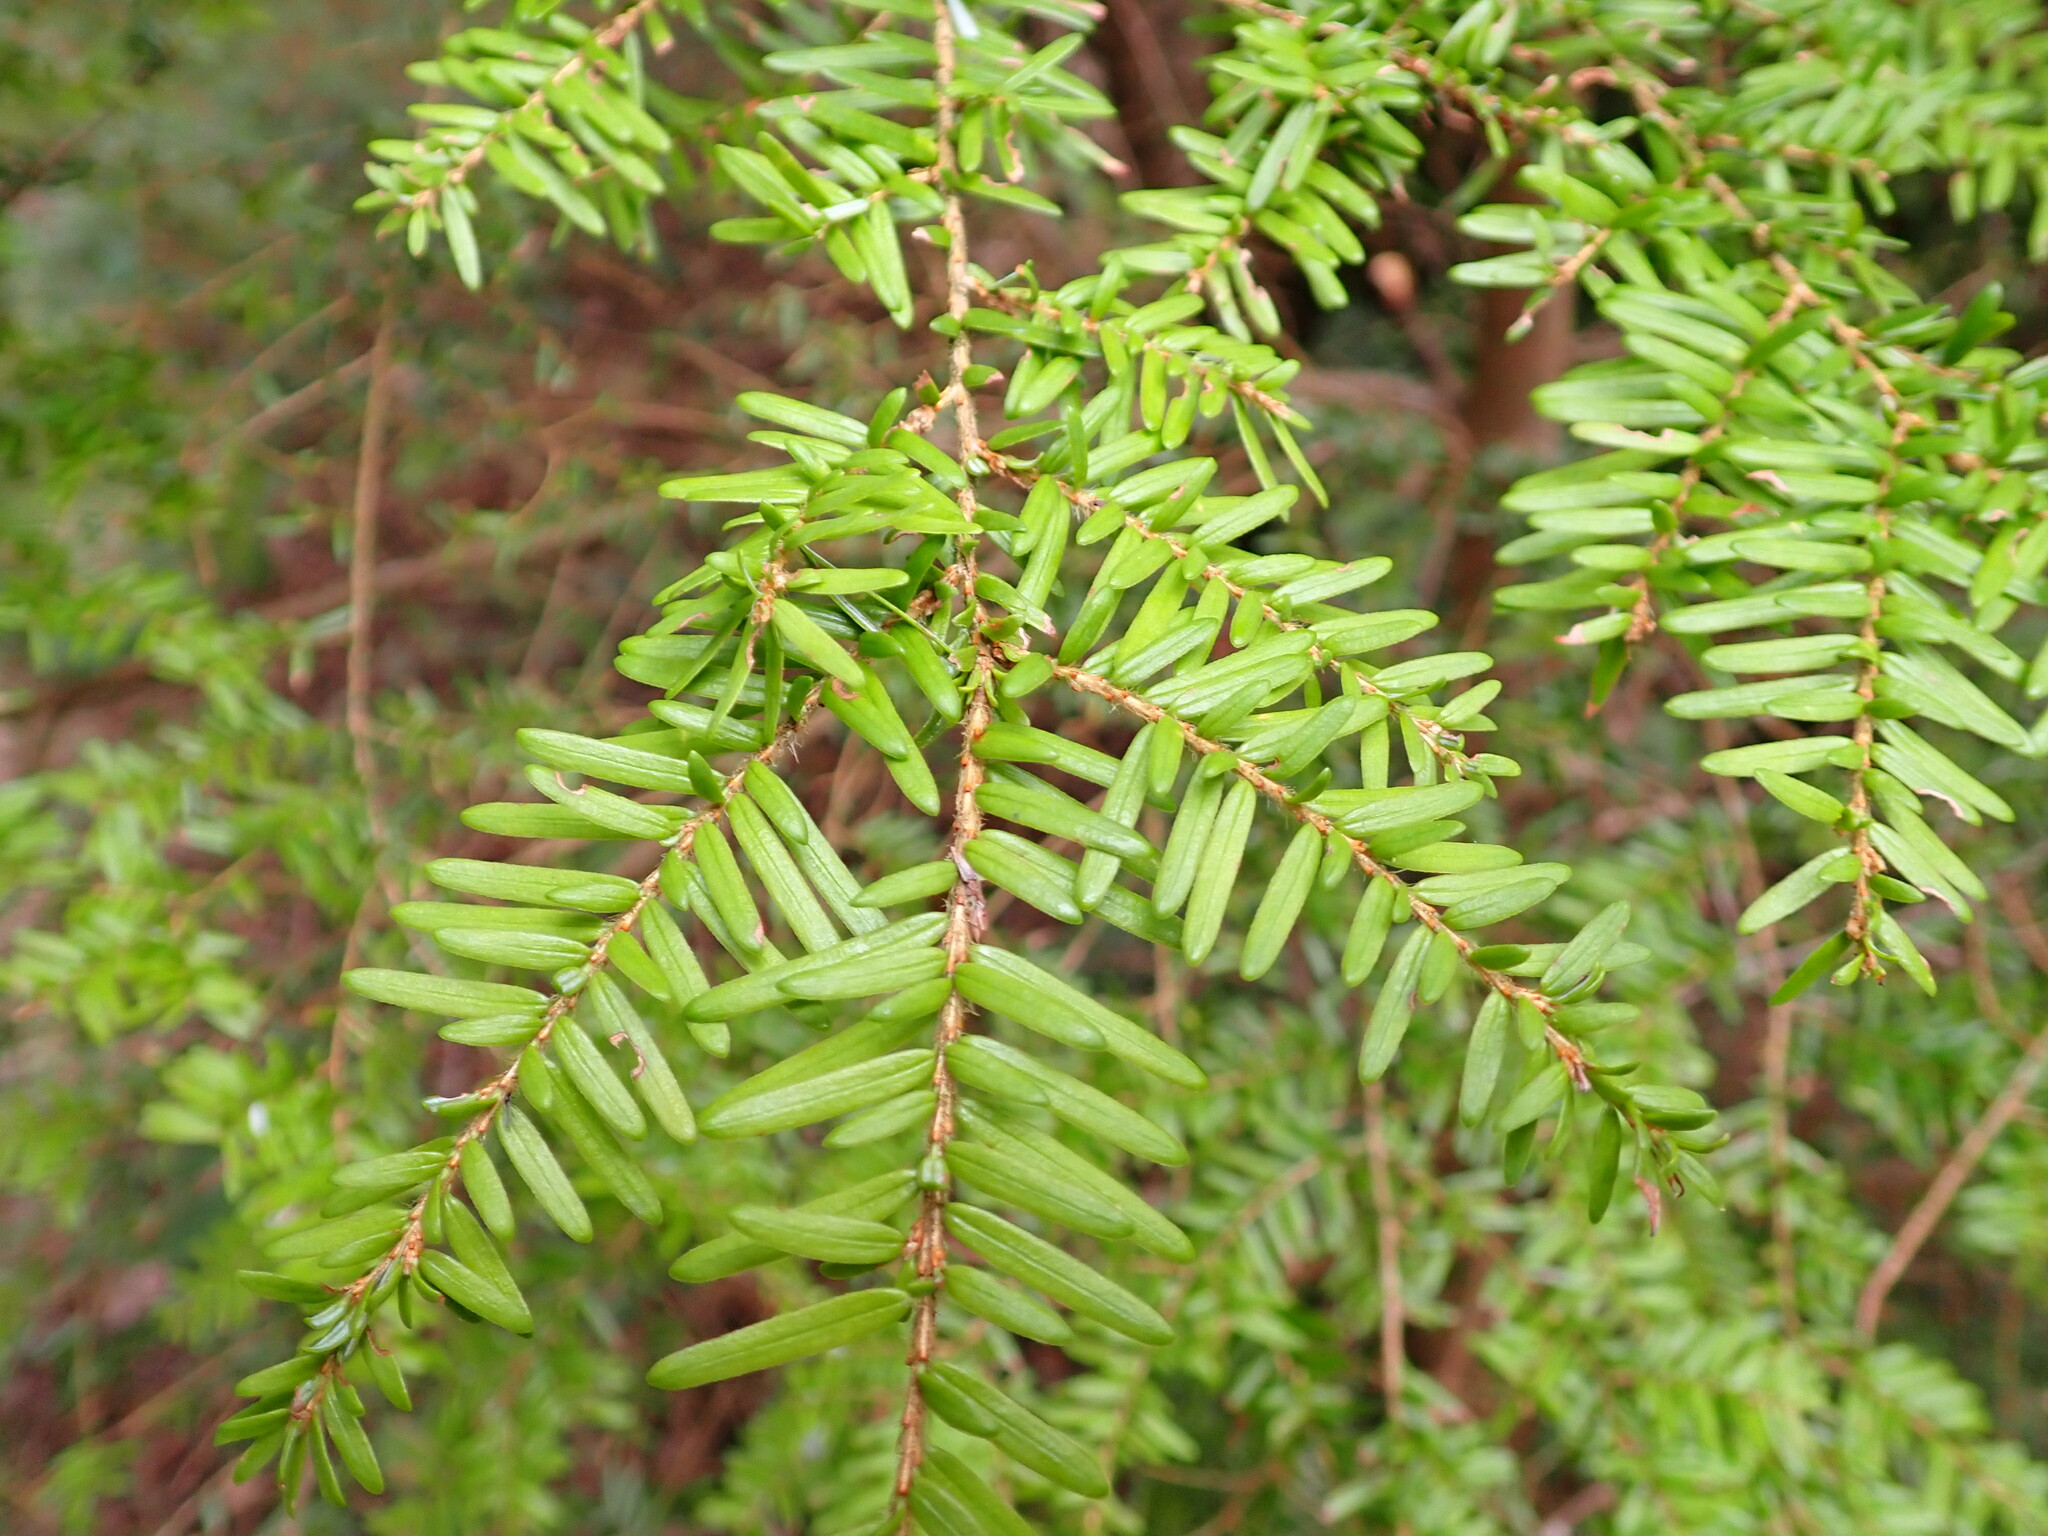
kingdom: Plantae
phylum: Tracheophyta
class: Pinopsida
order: Pinales
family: Pinaceae
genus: Tsuga
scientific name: Tsuga heterophylla
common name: Western hemlock
